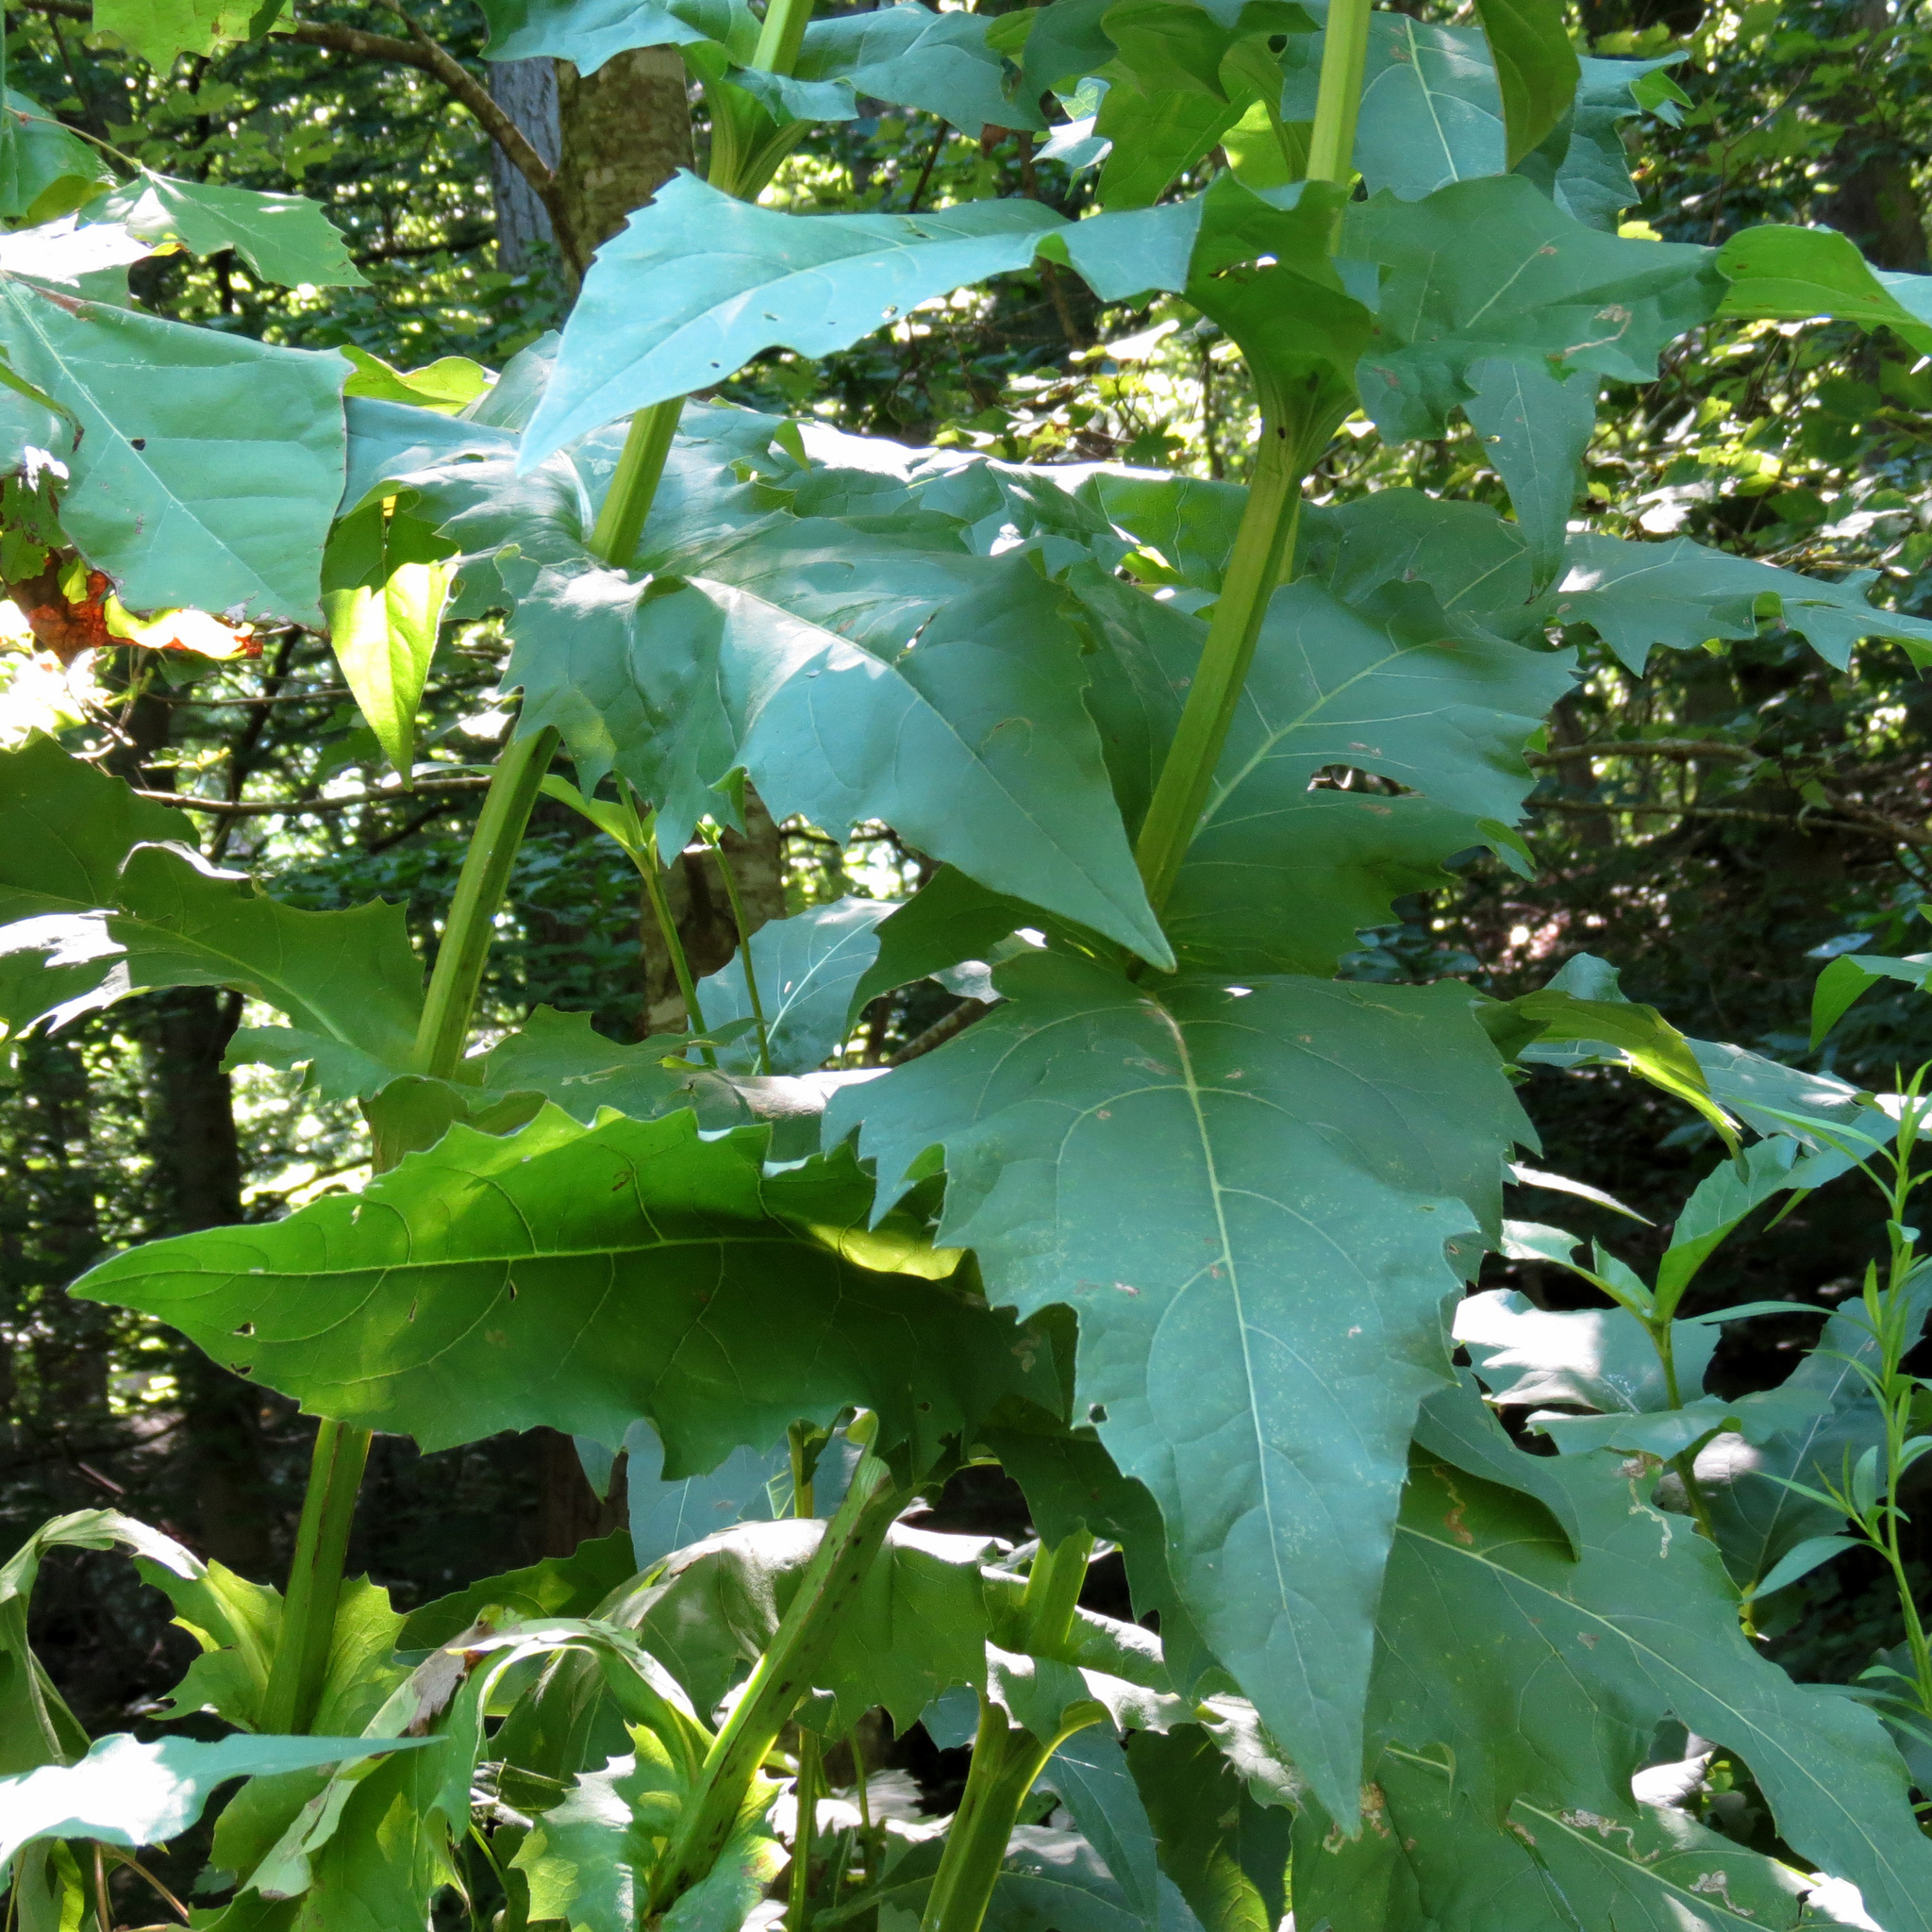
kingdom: Plantae
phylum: Tracheophyta
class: Magnoliopsida
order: Asterales
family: Asteraceae
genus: Silphium
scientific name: Silphium perfoliatum
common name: Cup-plant
